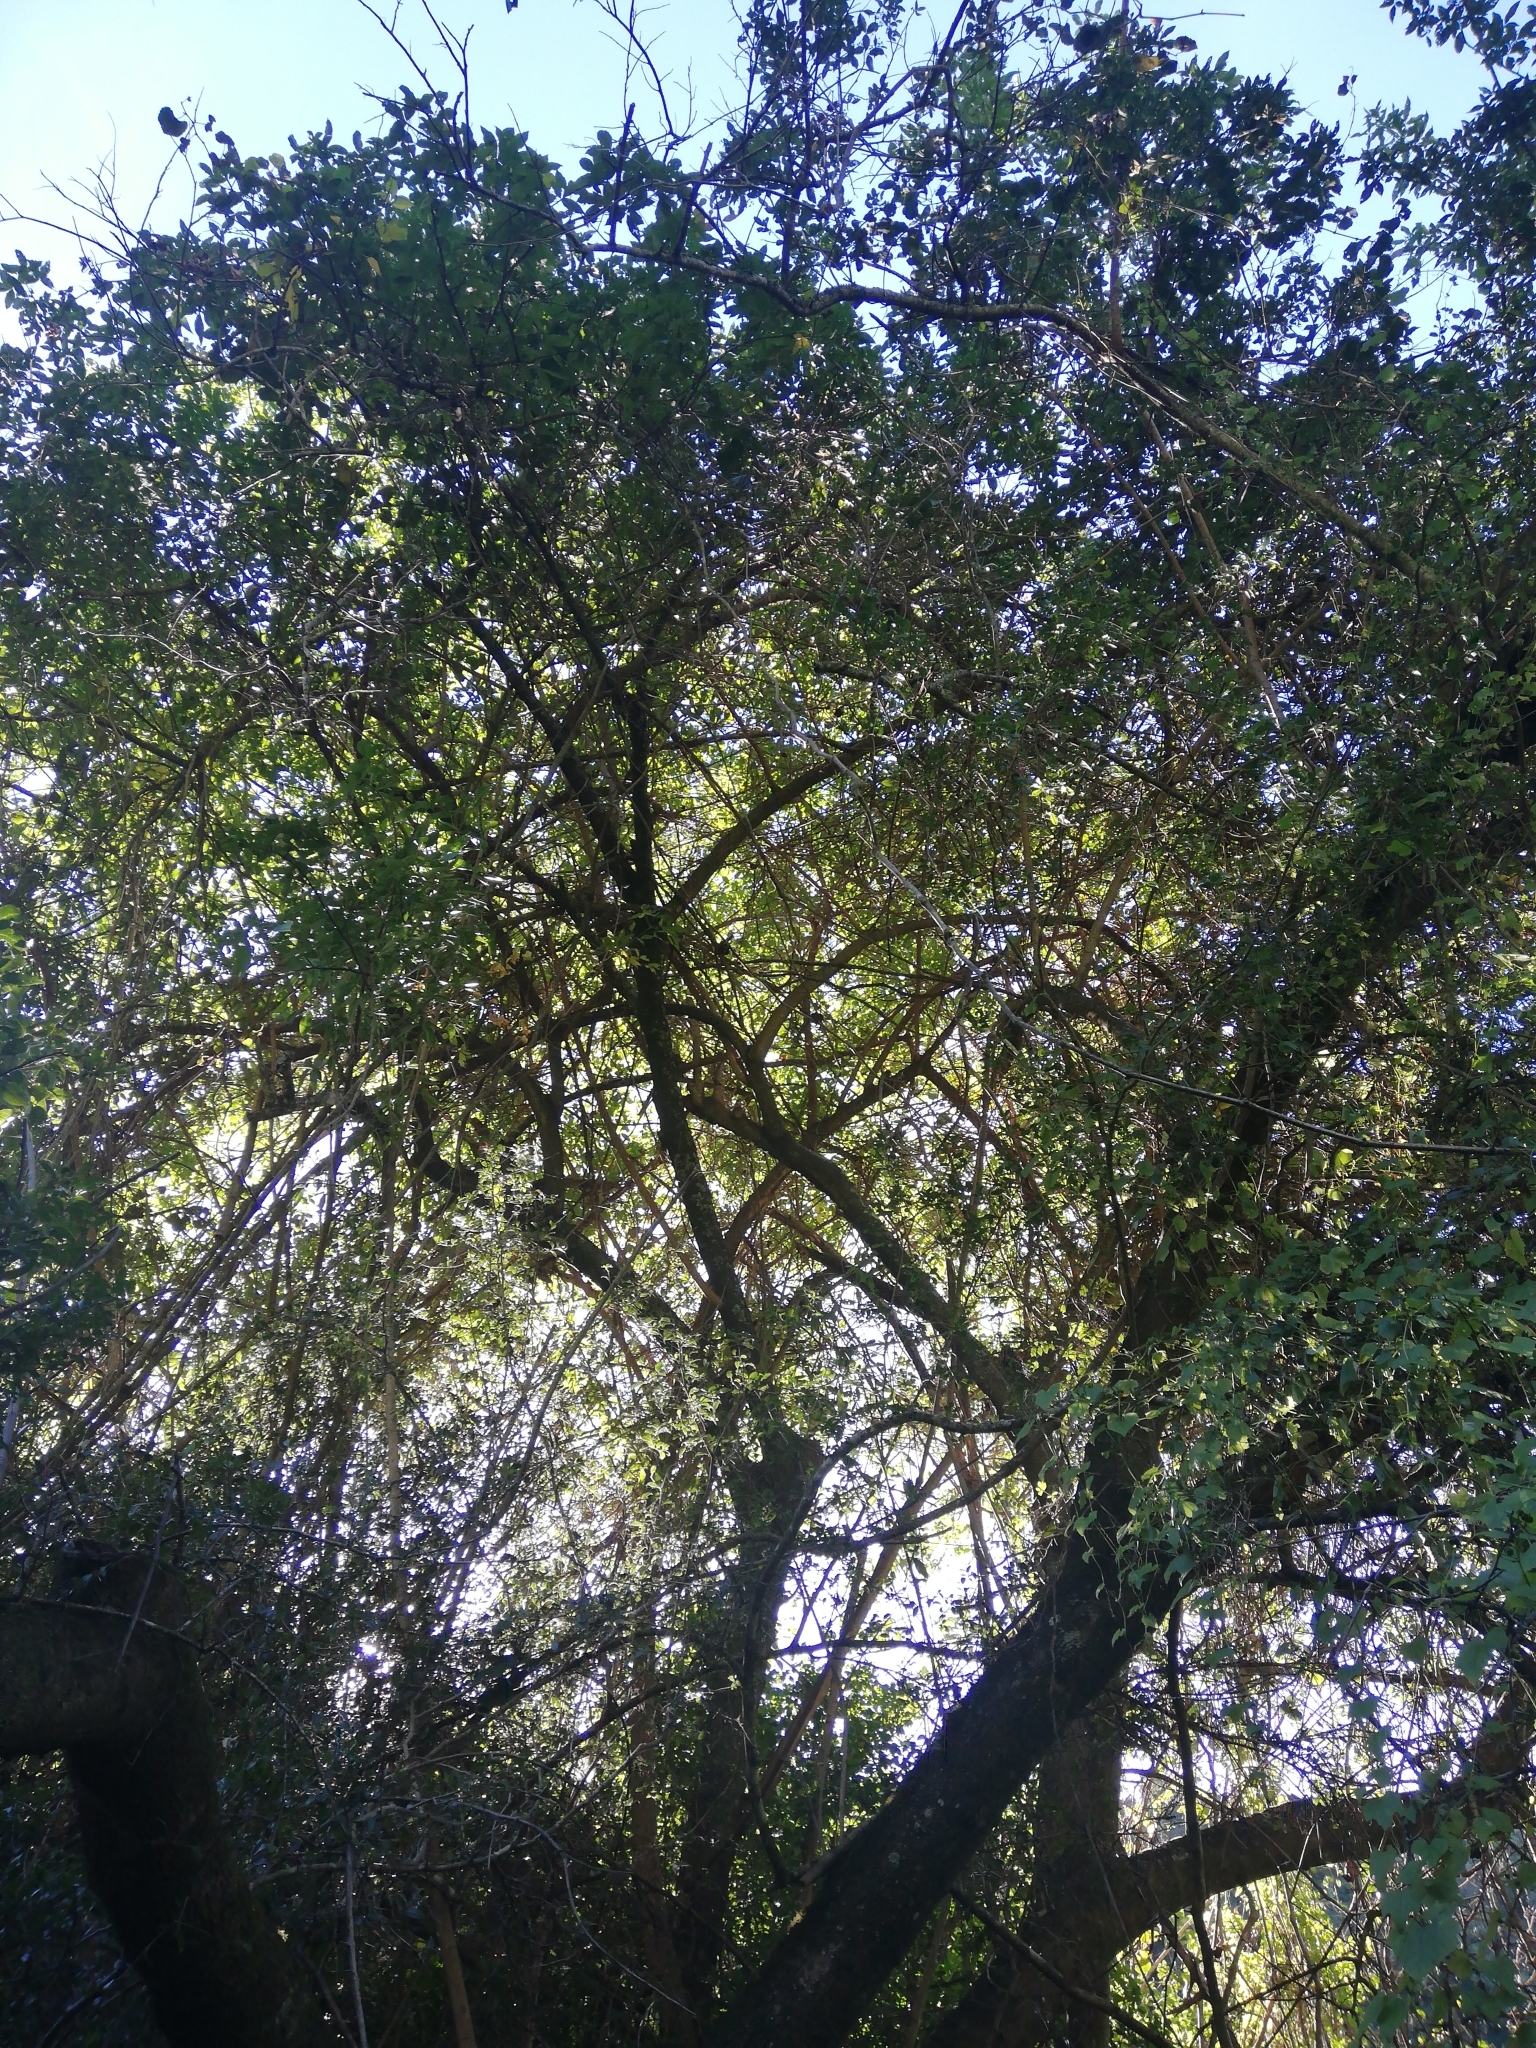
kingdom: Plantae
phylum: Tracheophyta
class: Magnoliopsida
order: Sapindales
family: Anacardiaceae
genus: Searsia
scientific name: Searsia chirindensis
